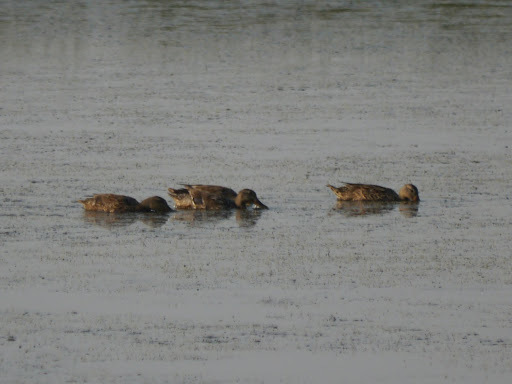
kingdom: Animalia
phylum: Chordata
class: Aves
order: Anseriformes
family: Anatidae
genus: Anas
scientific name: Anas platyrhynchos
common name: Mallard
